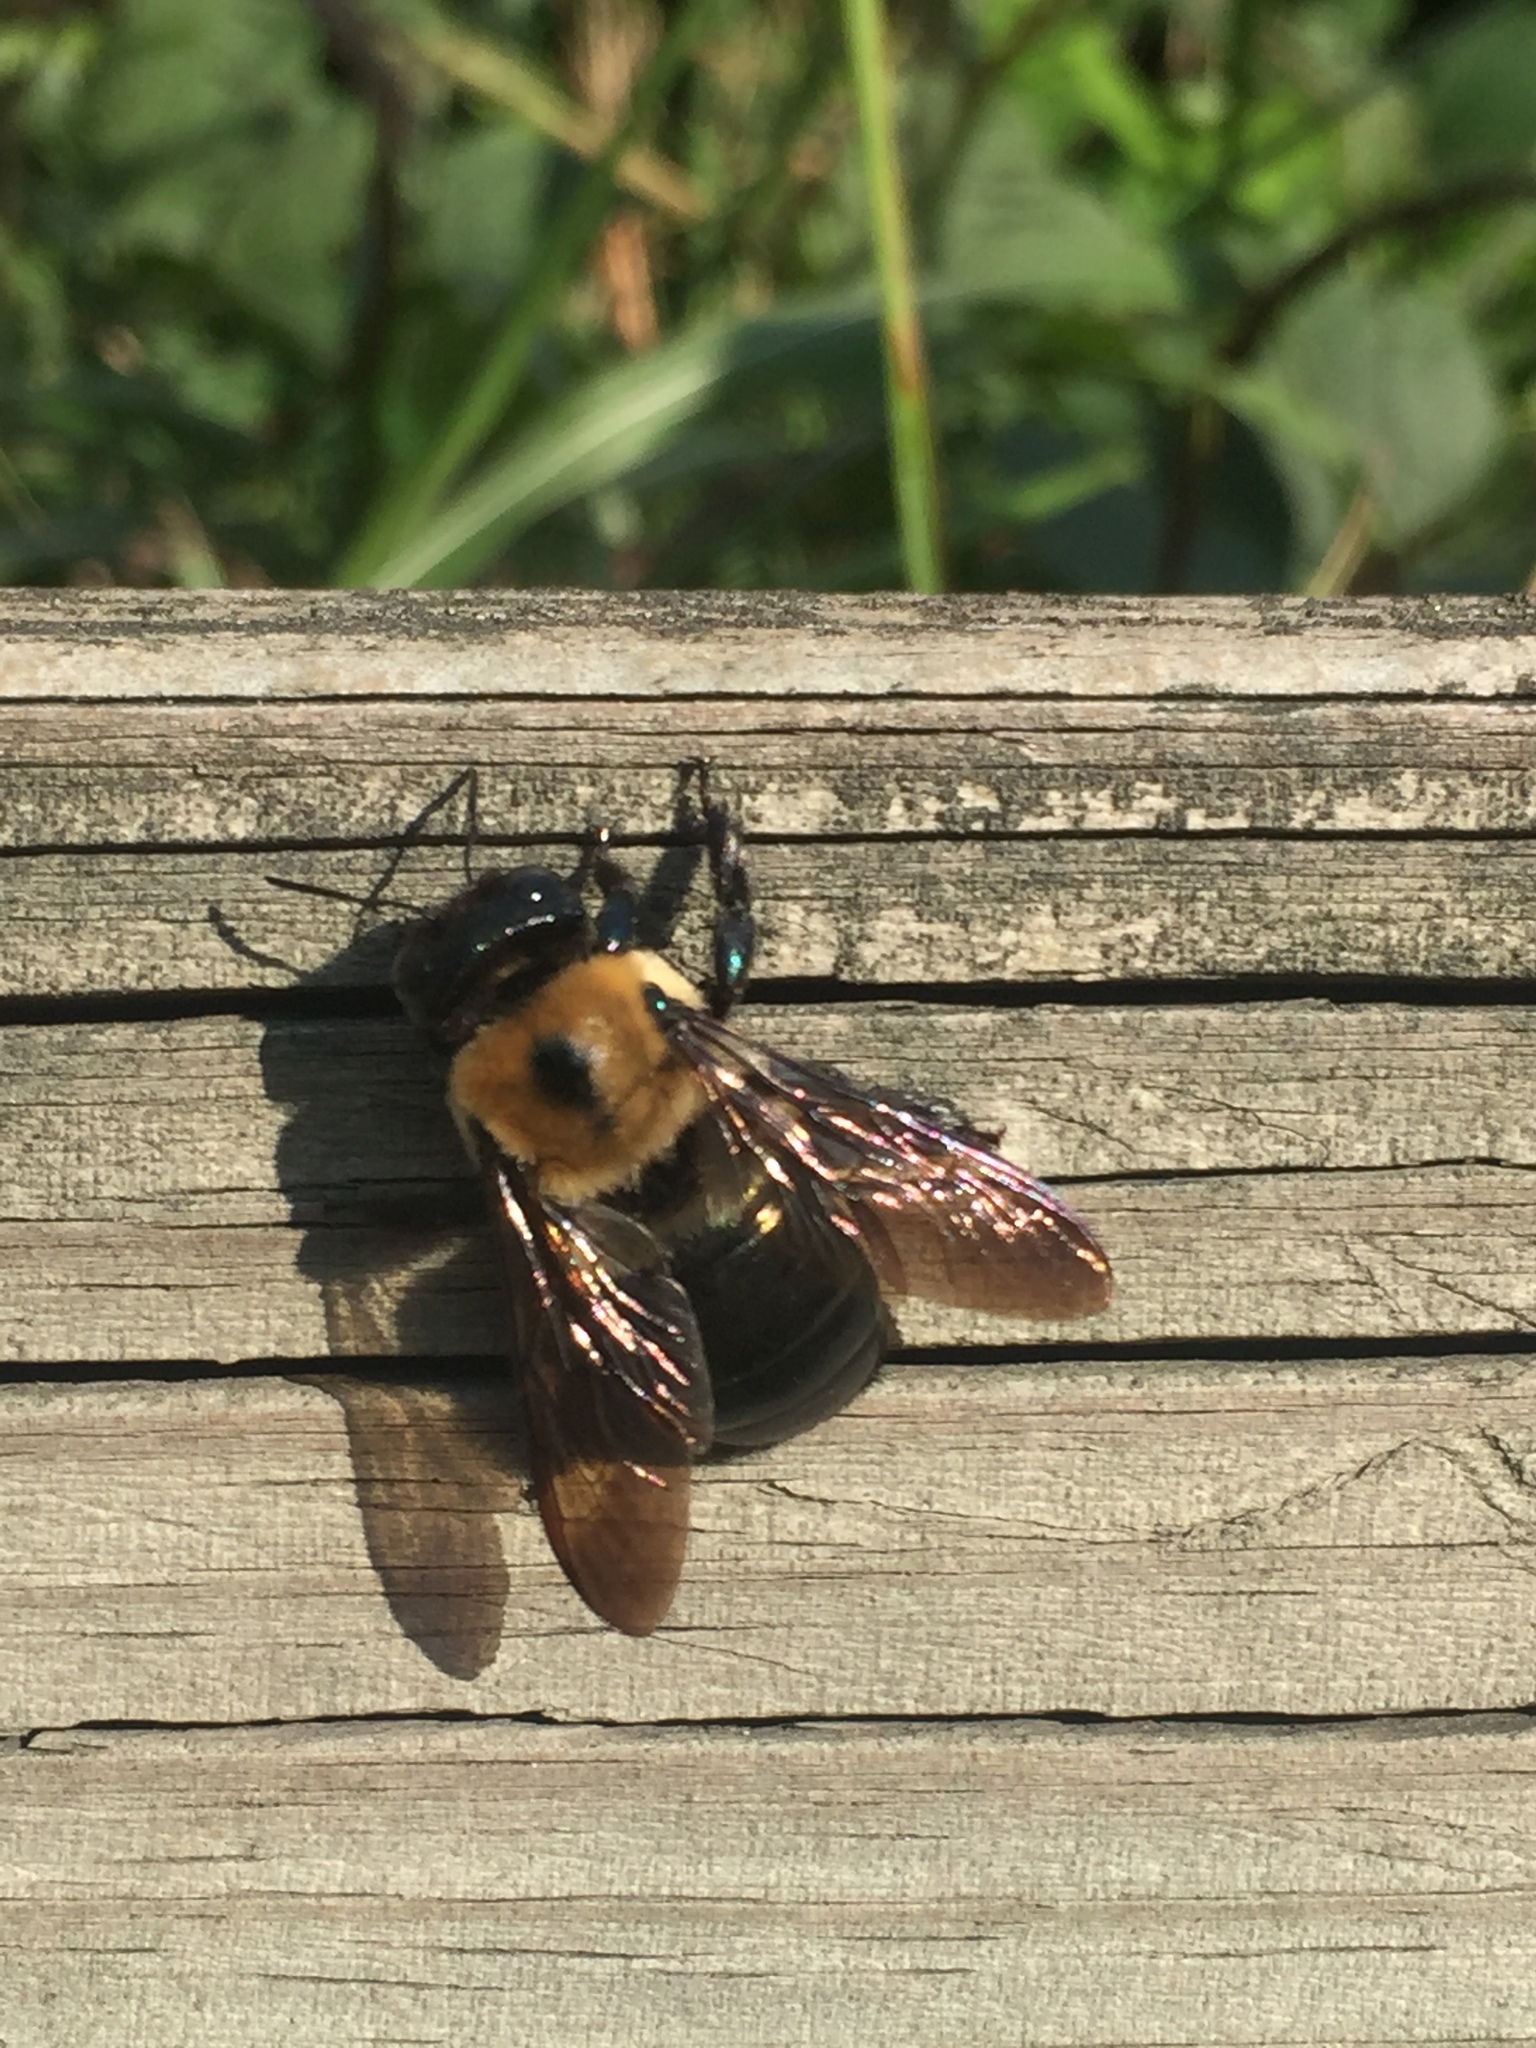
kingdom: Animalia
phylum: Arthropoda
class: Insecta
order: Hymenoptera
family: Apidae
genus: Xylocopa
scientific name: Xylocopa virginica
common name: Carpenter bee
